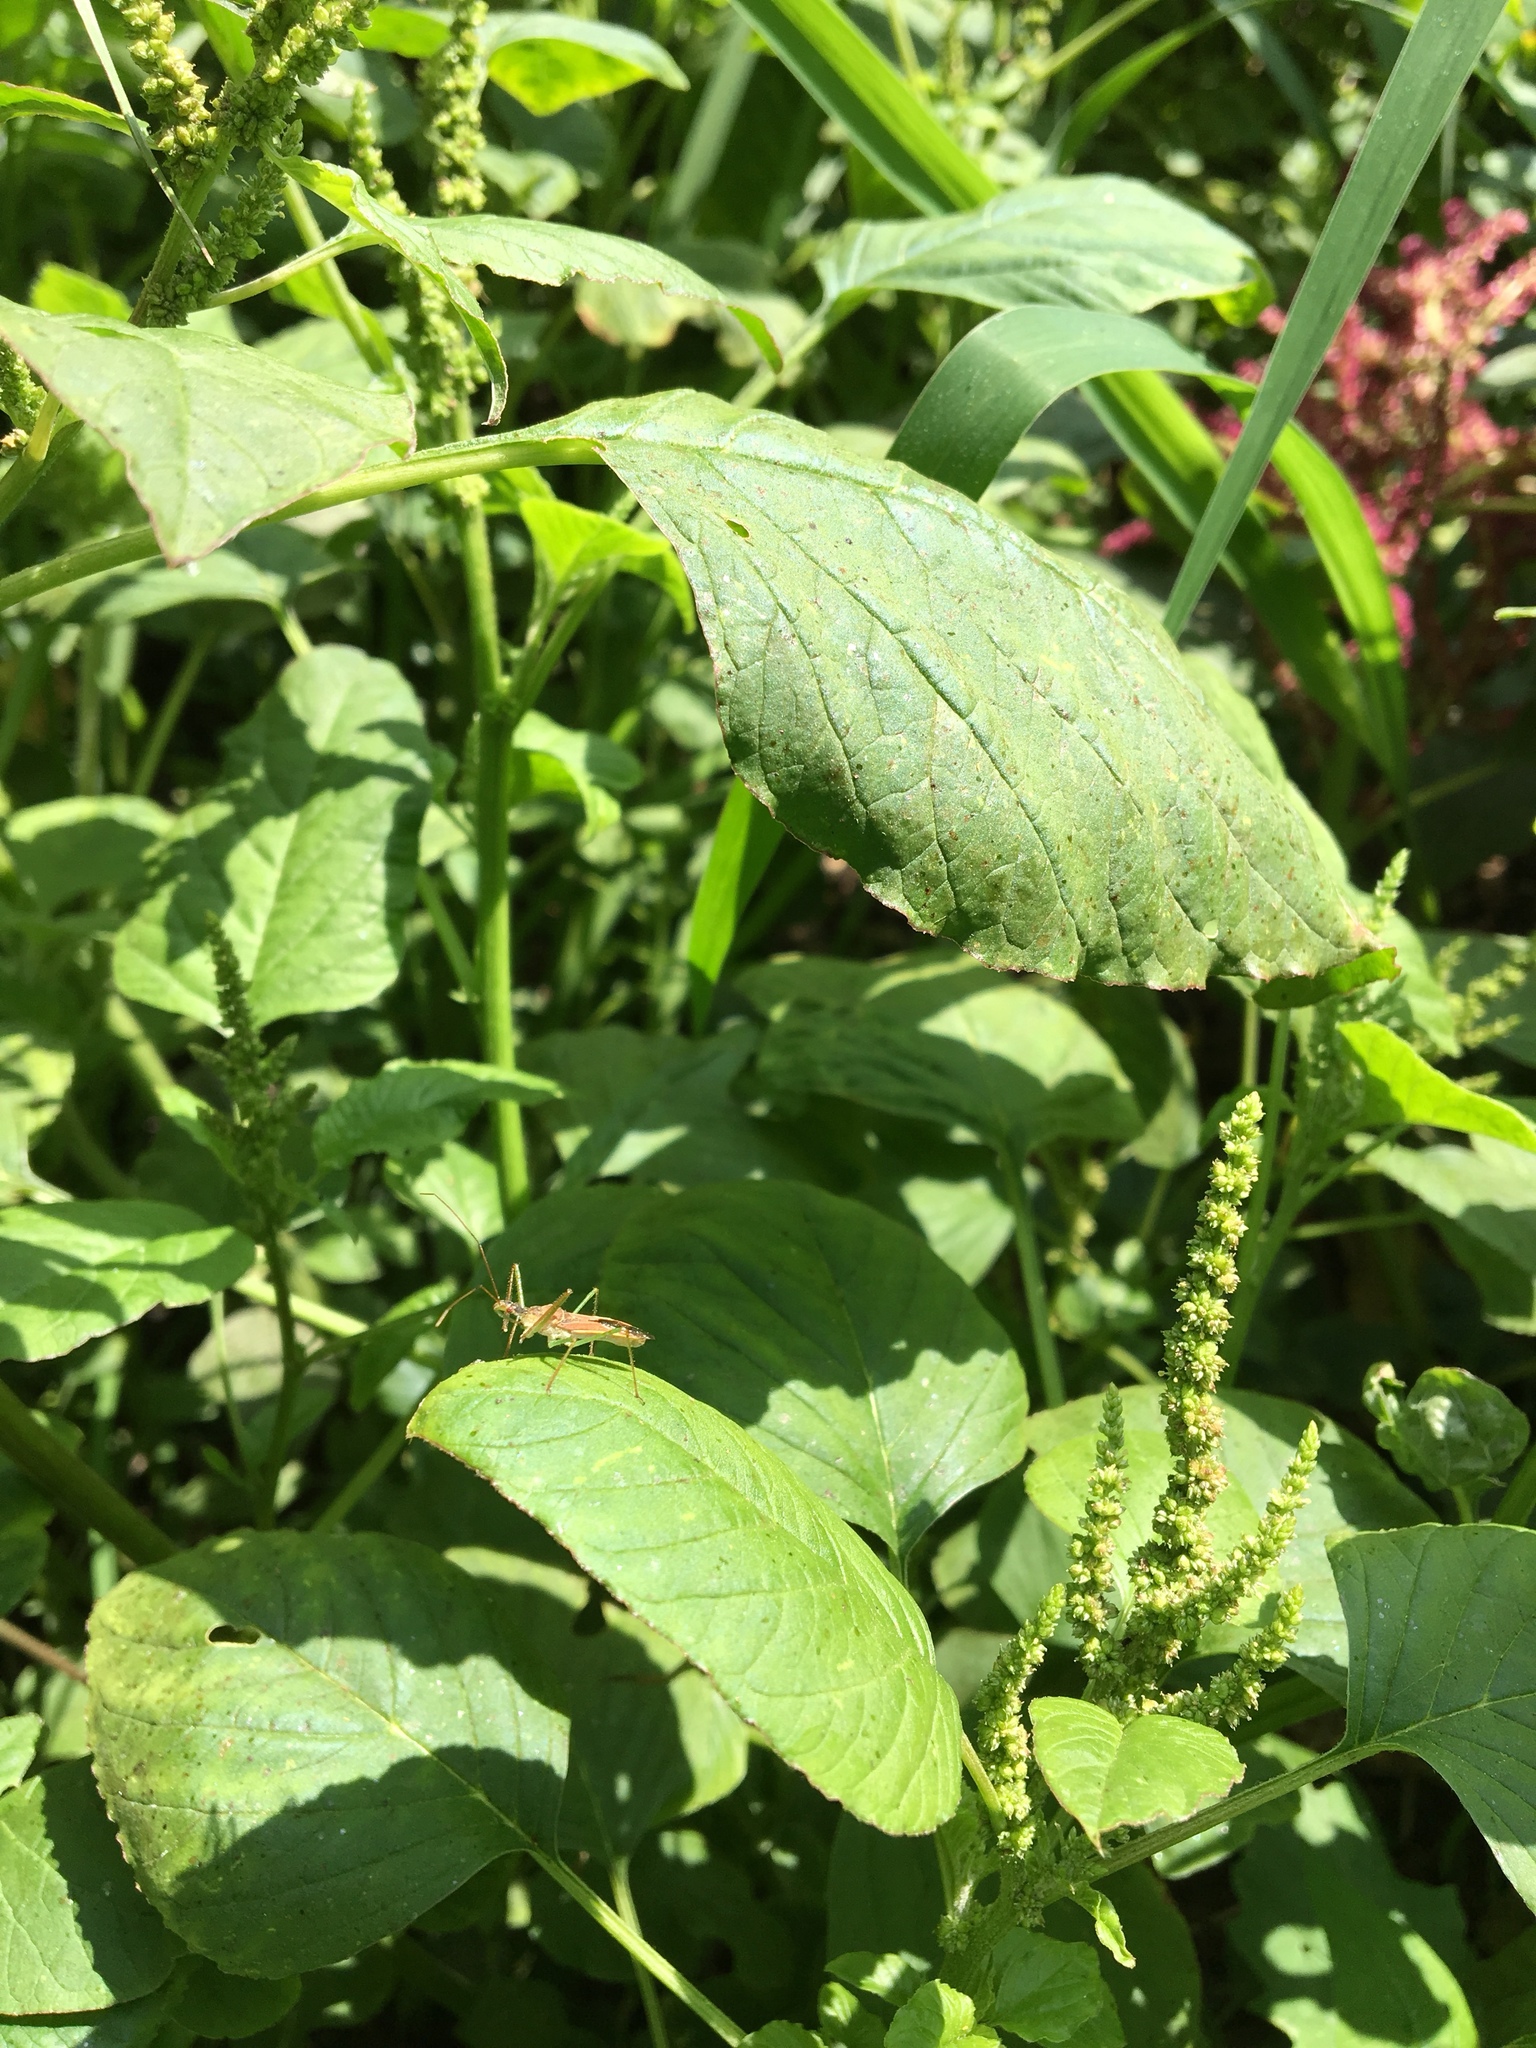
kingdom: Animalia
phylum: Arthropoda
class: Insecta
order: Hemiptera
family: Reduviidae
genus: Zelus
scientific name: Zelus renardii
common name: Assassin bug
